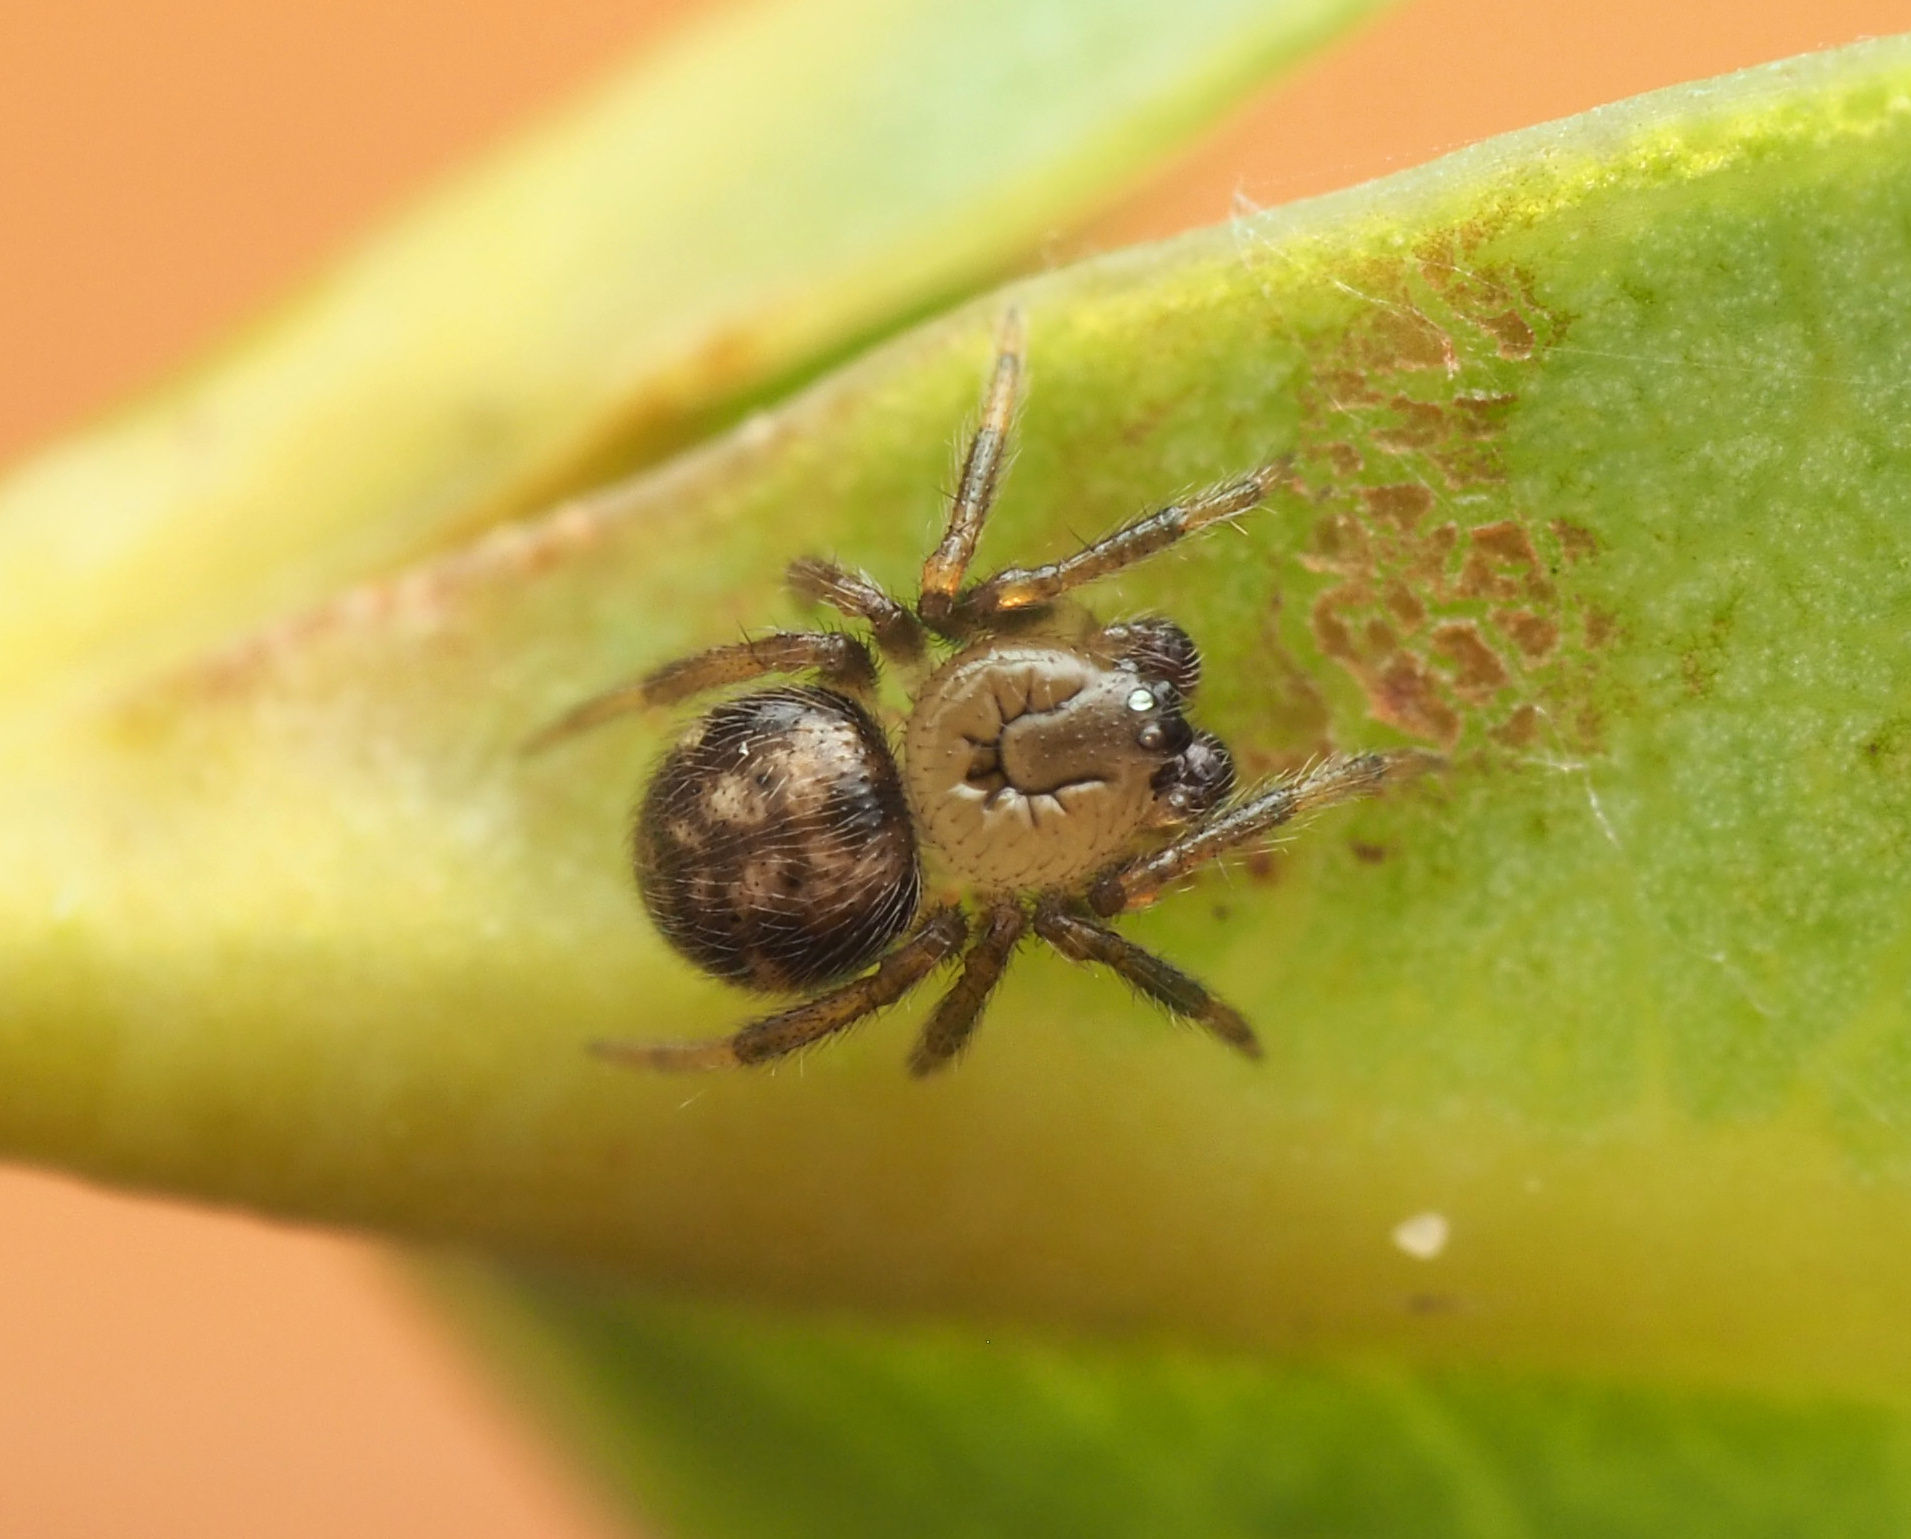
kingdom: Animalia
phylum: Arthropoda
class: Arachnida
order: Araneae
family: Theridiidae
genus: Phycosoma
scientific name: Phycosoma
